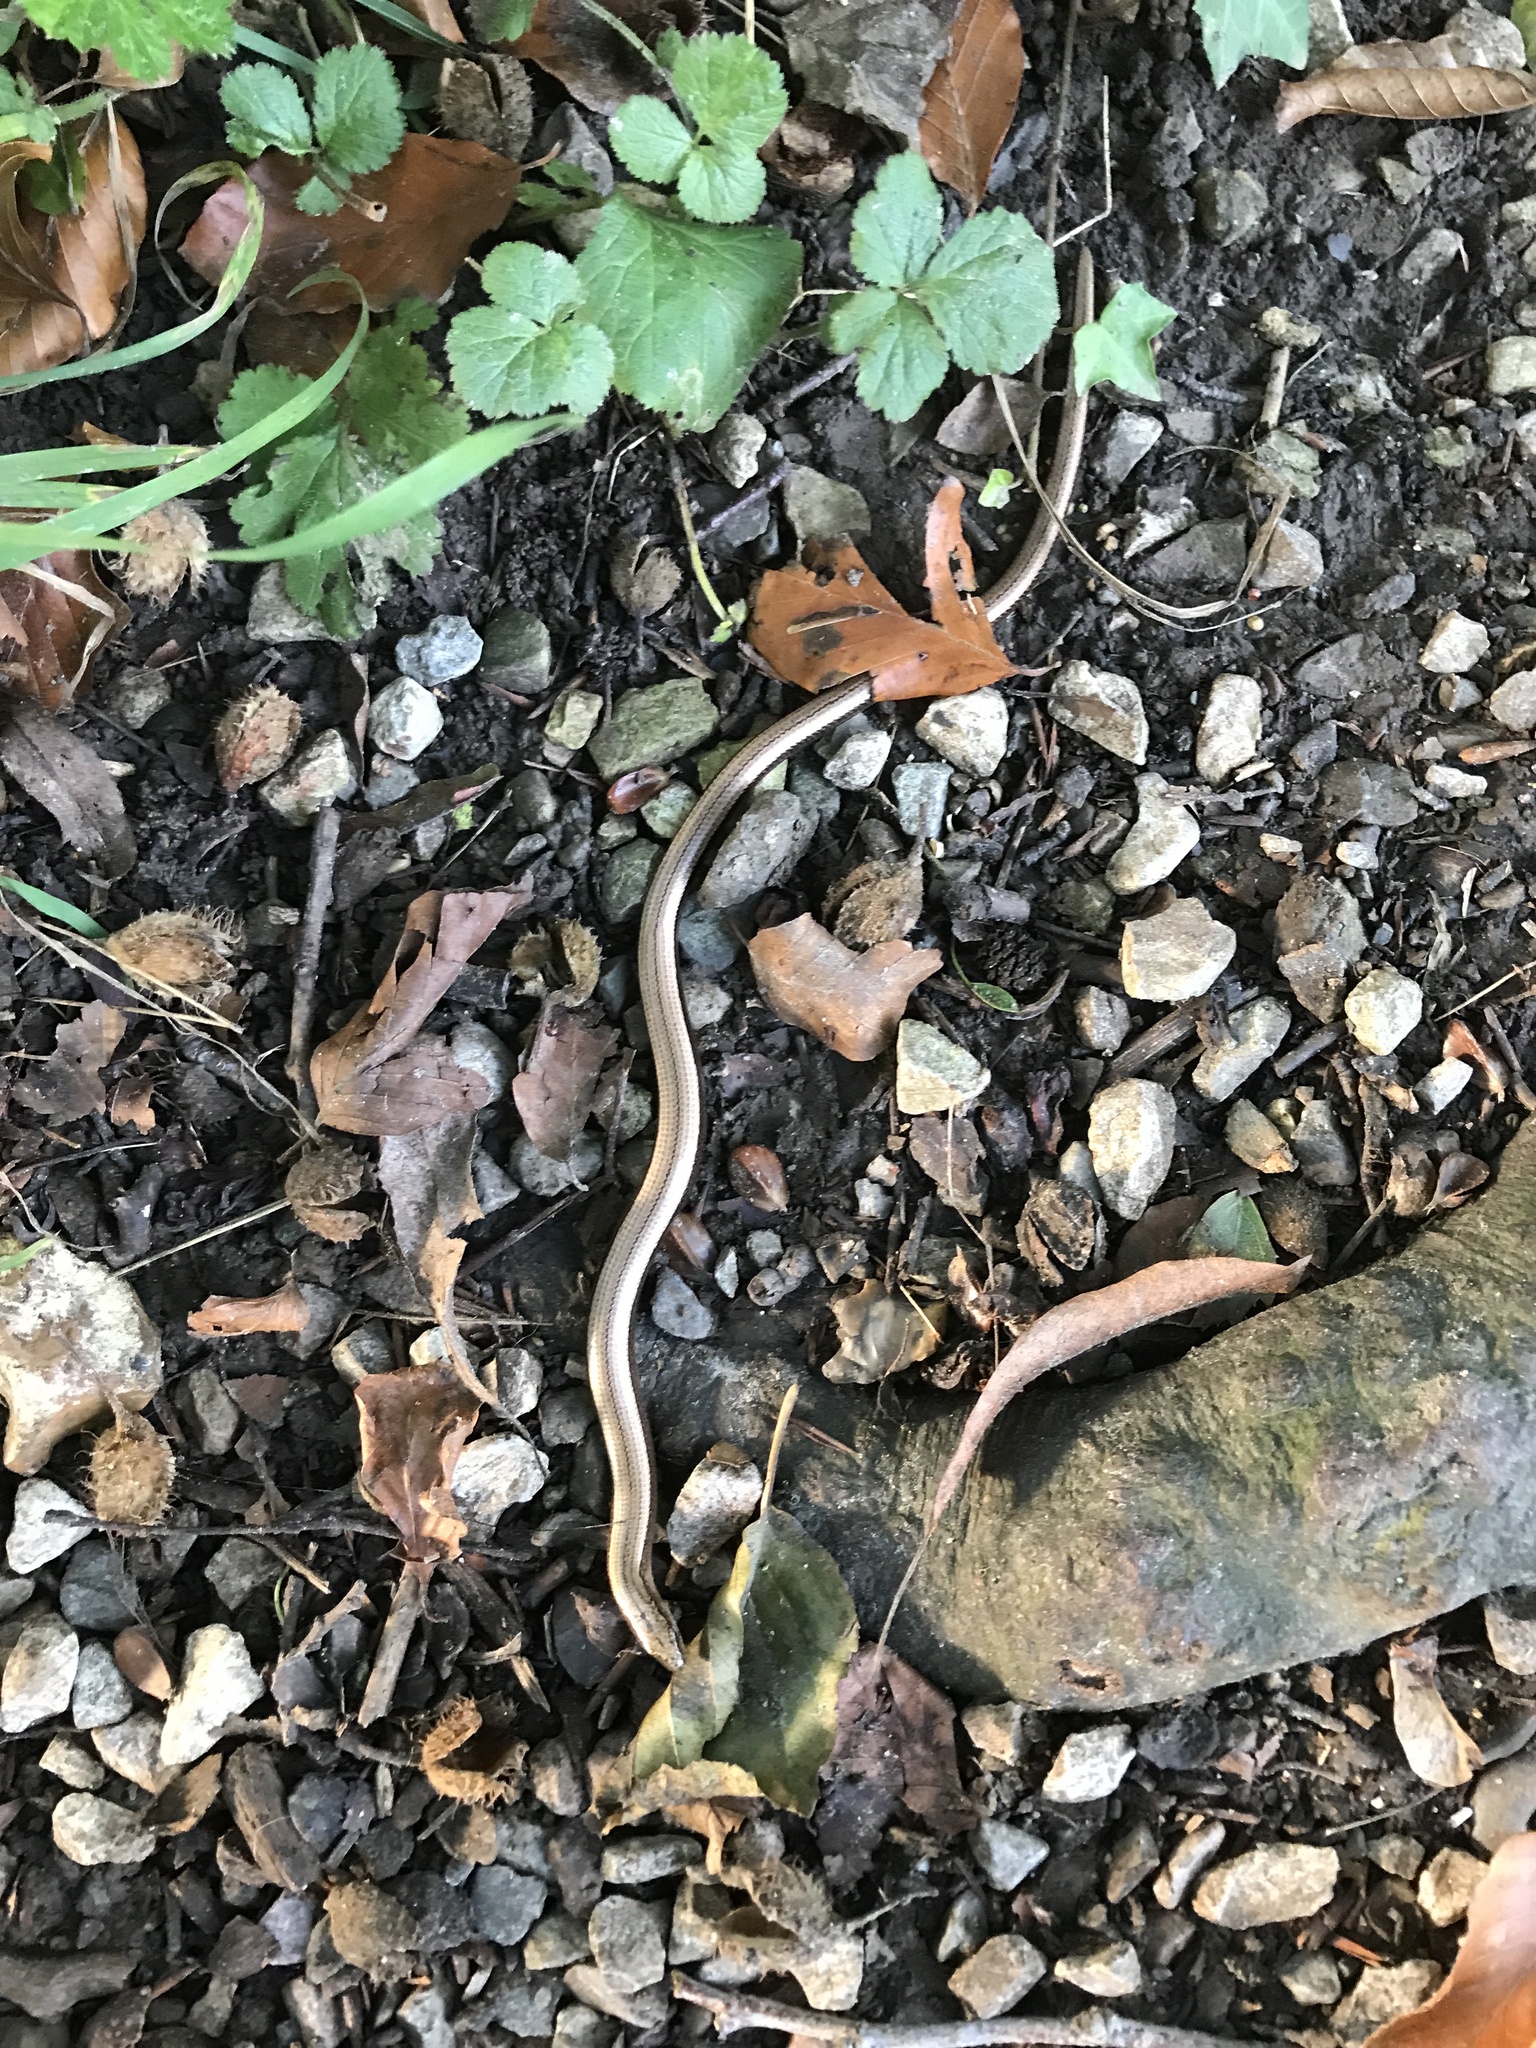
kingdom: Animalia
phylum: Chordata
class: Squamata
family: Anguidae
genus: Anguis
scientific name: Anguis fragilis
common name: Slow worm
